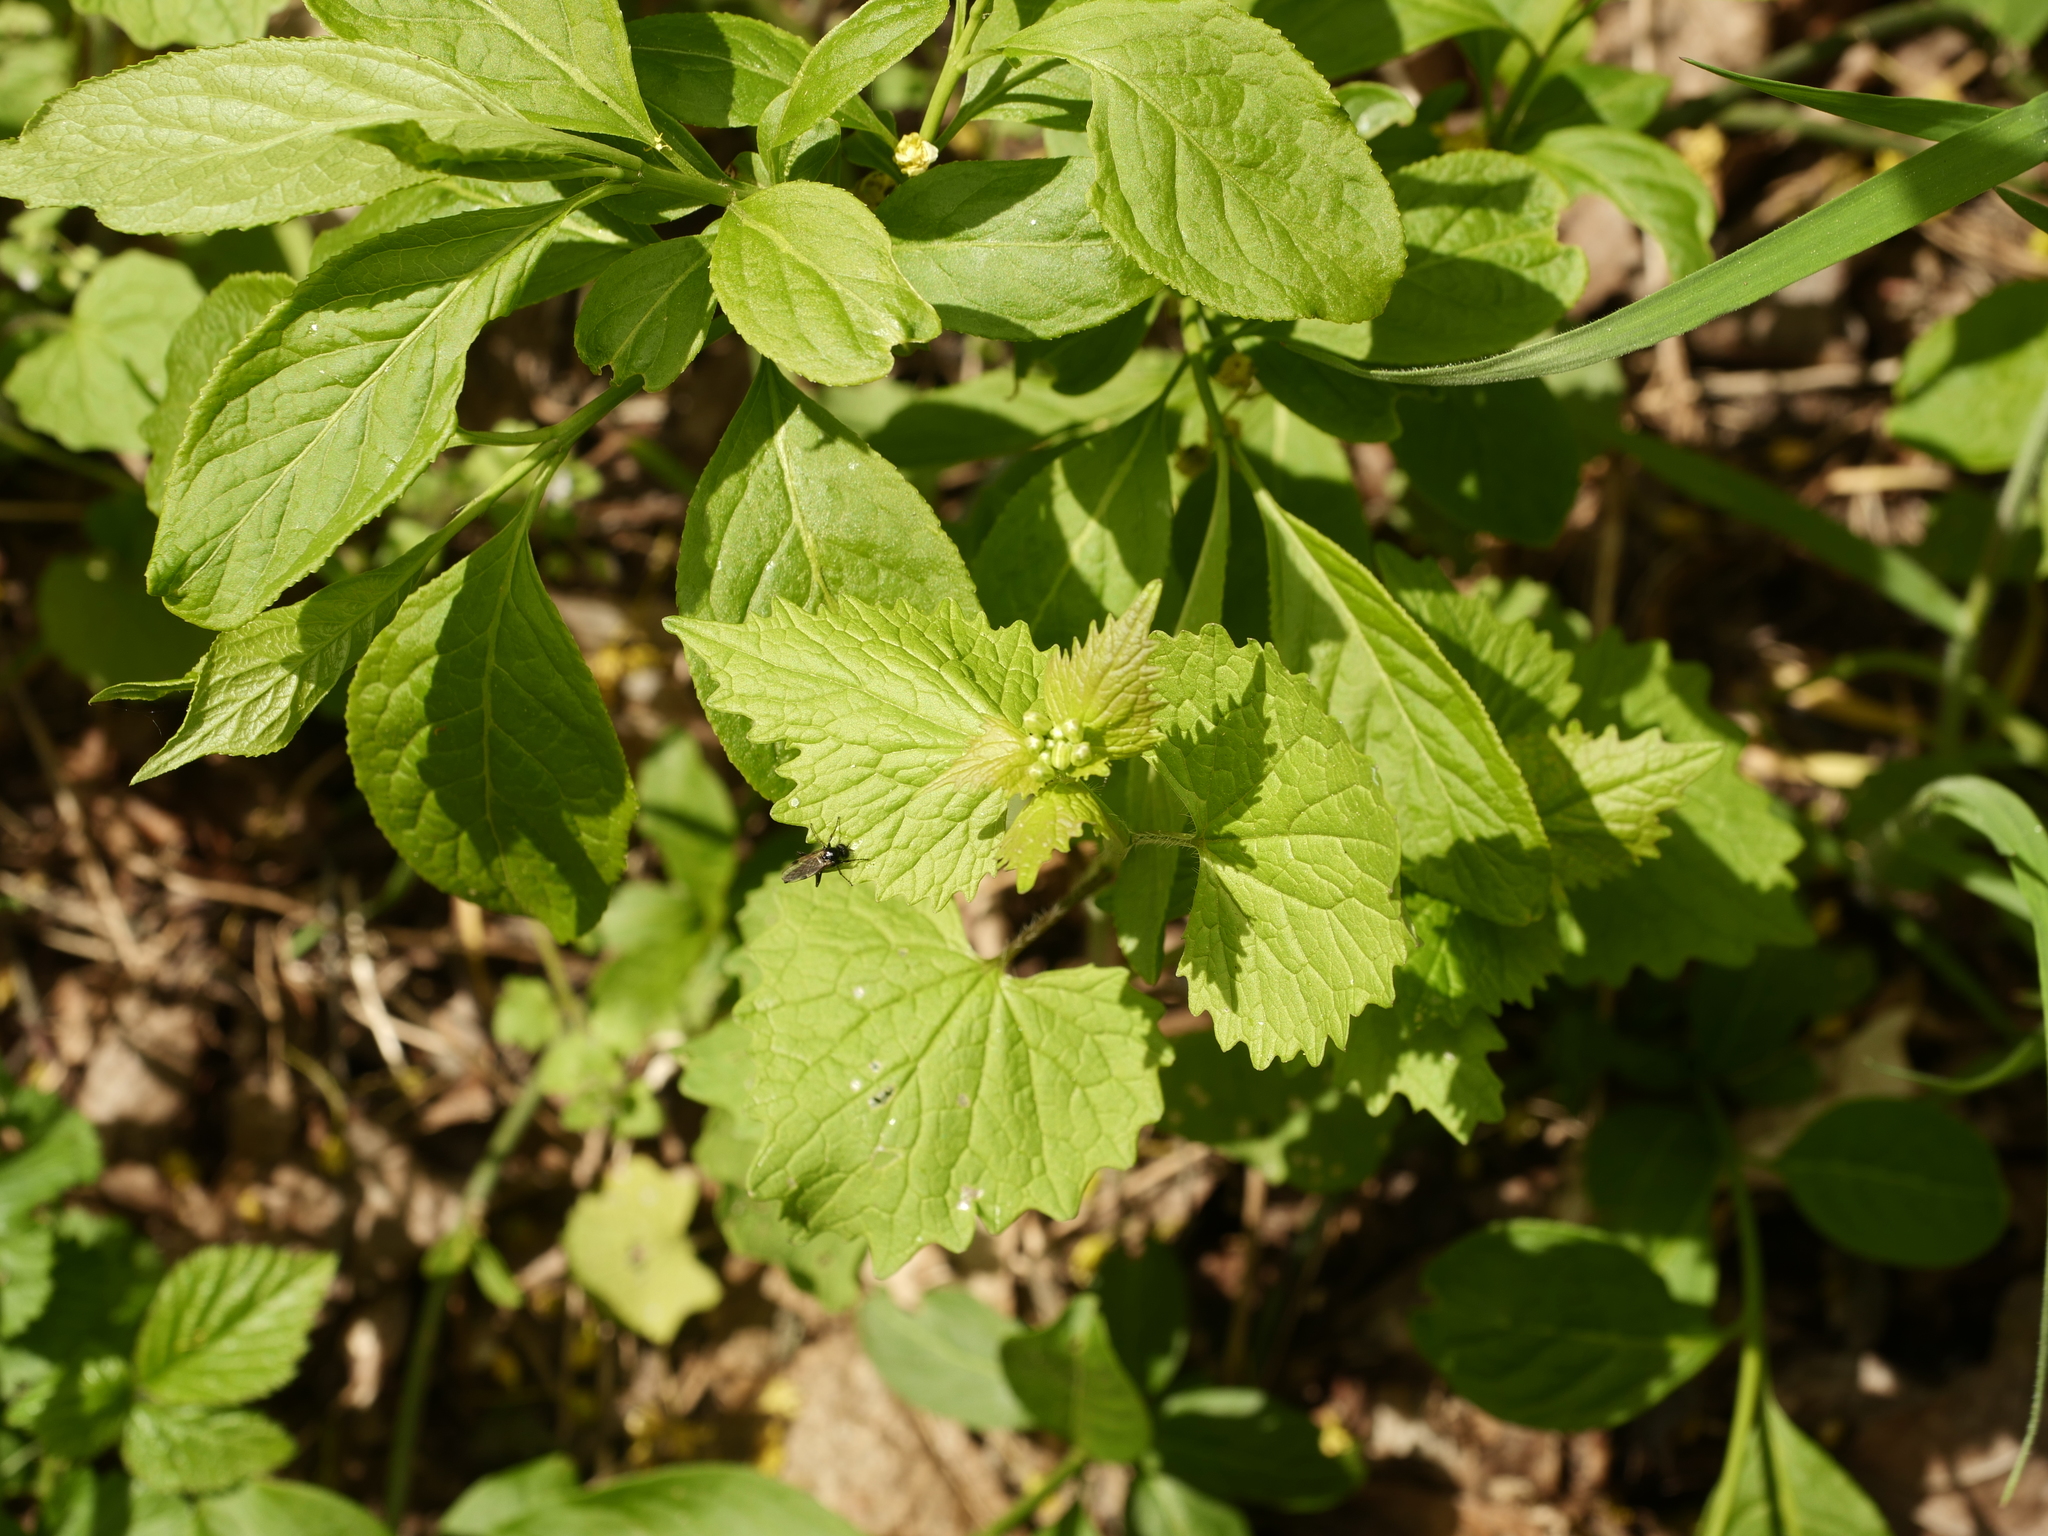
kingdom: Plantae
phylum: Tracheophyta
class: Magnoliopsida
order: Brassicales
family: Brassicaceae
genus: Alliaria
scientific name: Alliaria petiolata
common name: Garlic mustard
